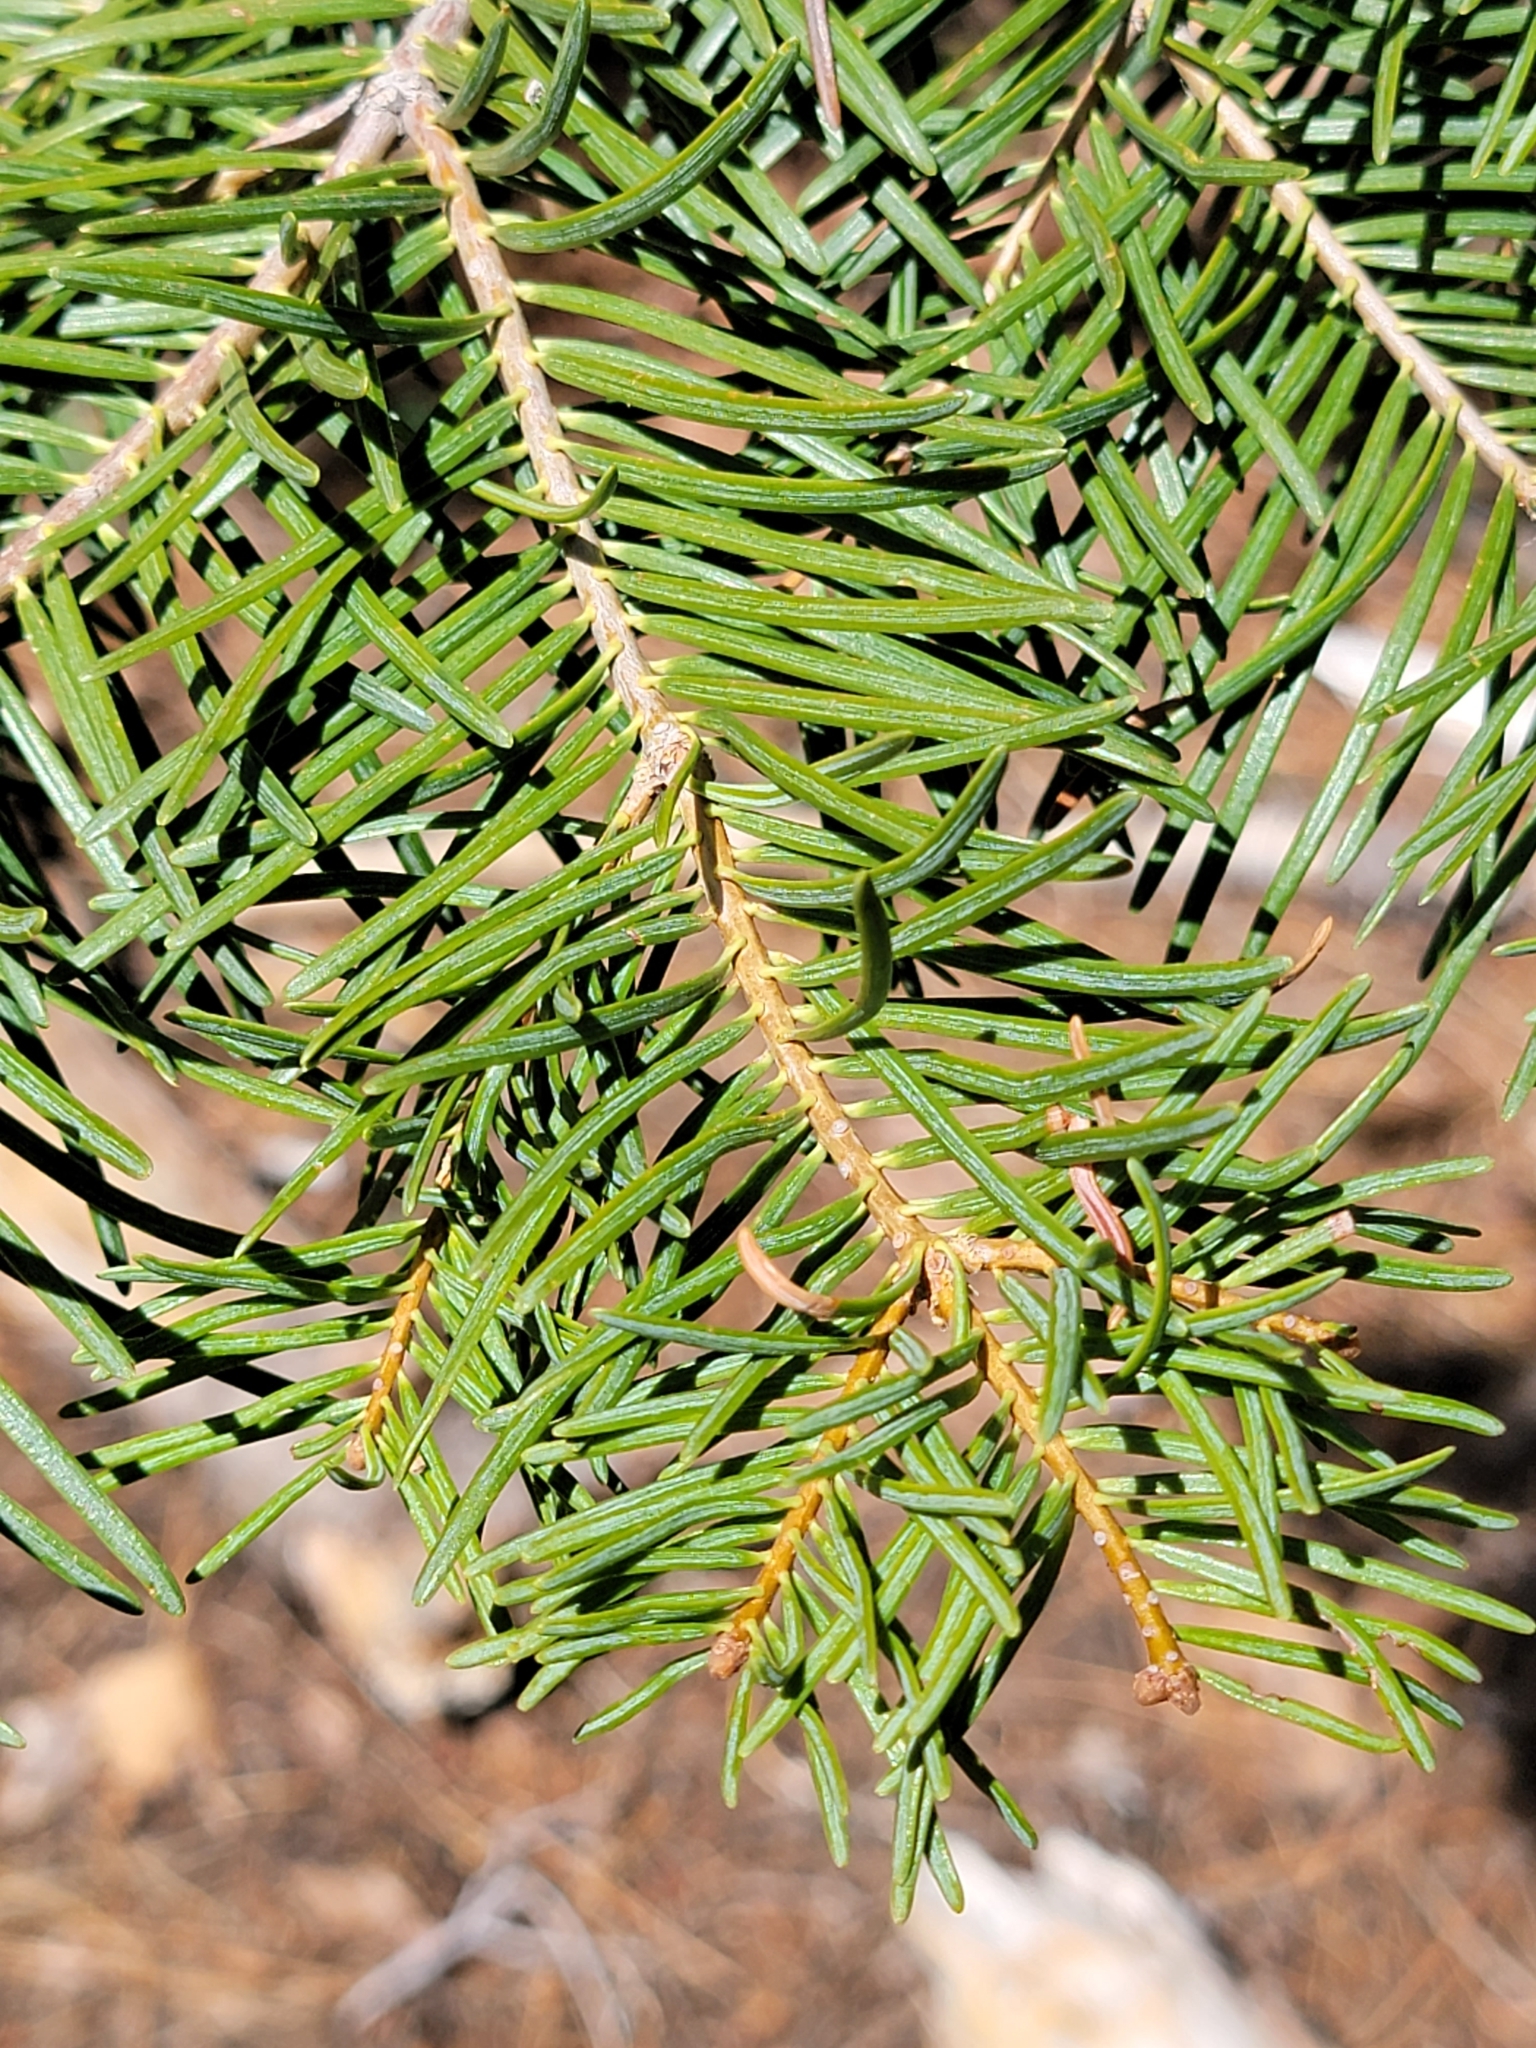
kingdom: Plantae
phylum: Tracheophyta
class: Pinopsida
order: Pinales
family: Pinaceae
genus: Abies
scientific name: Abies concolor
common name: Colorado fir
